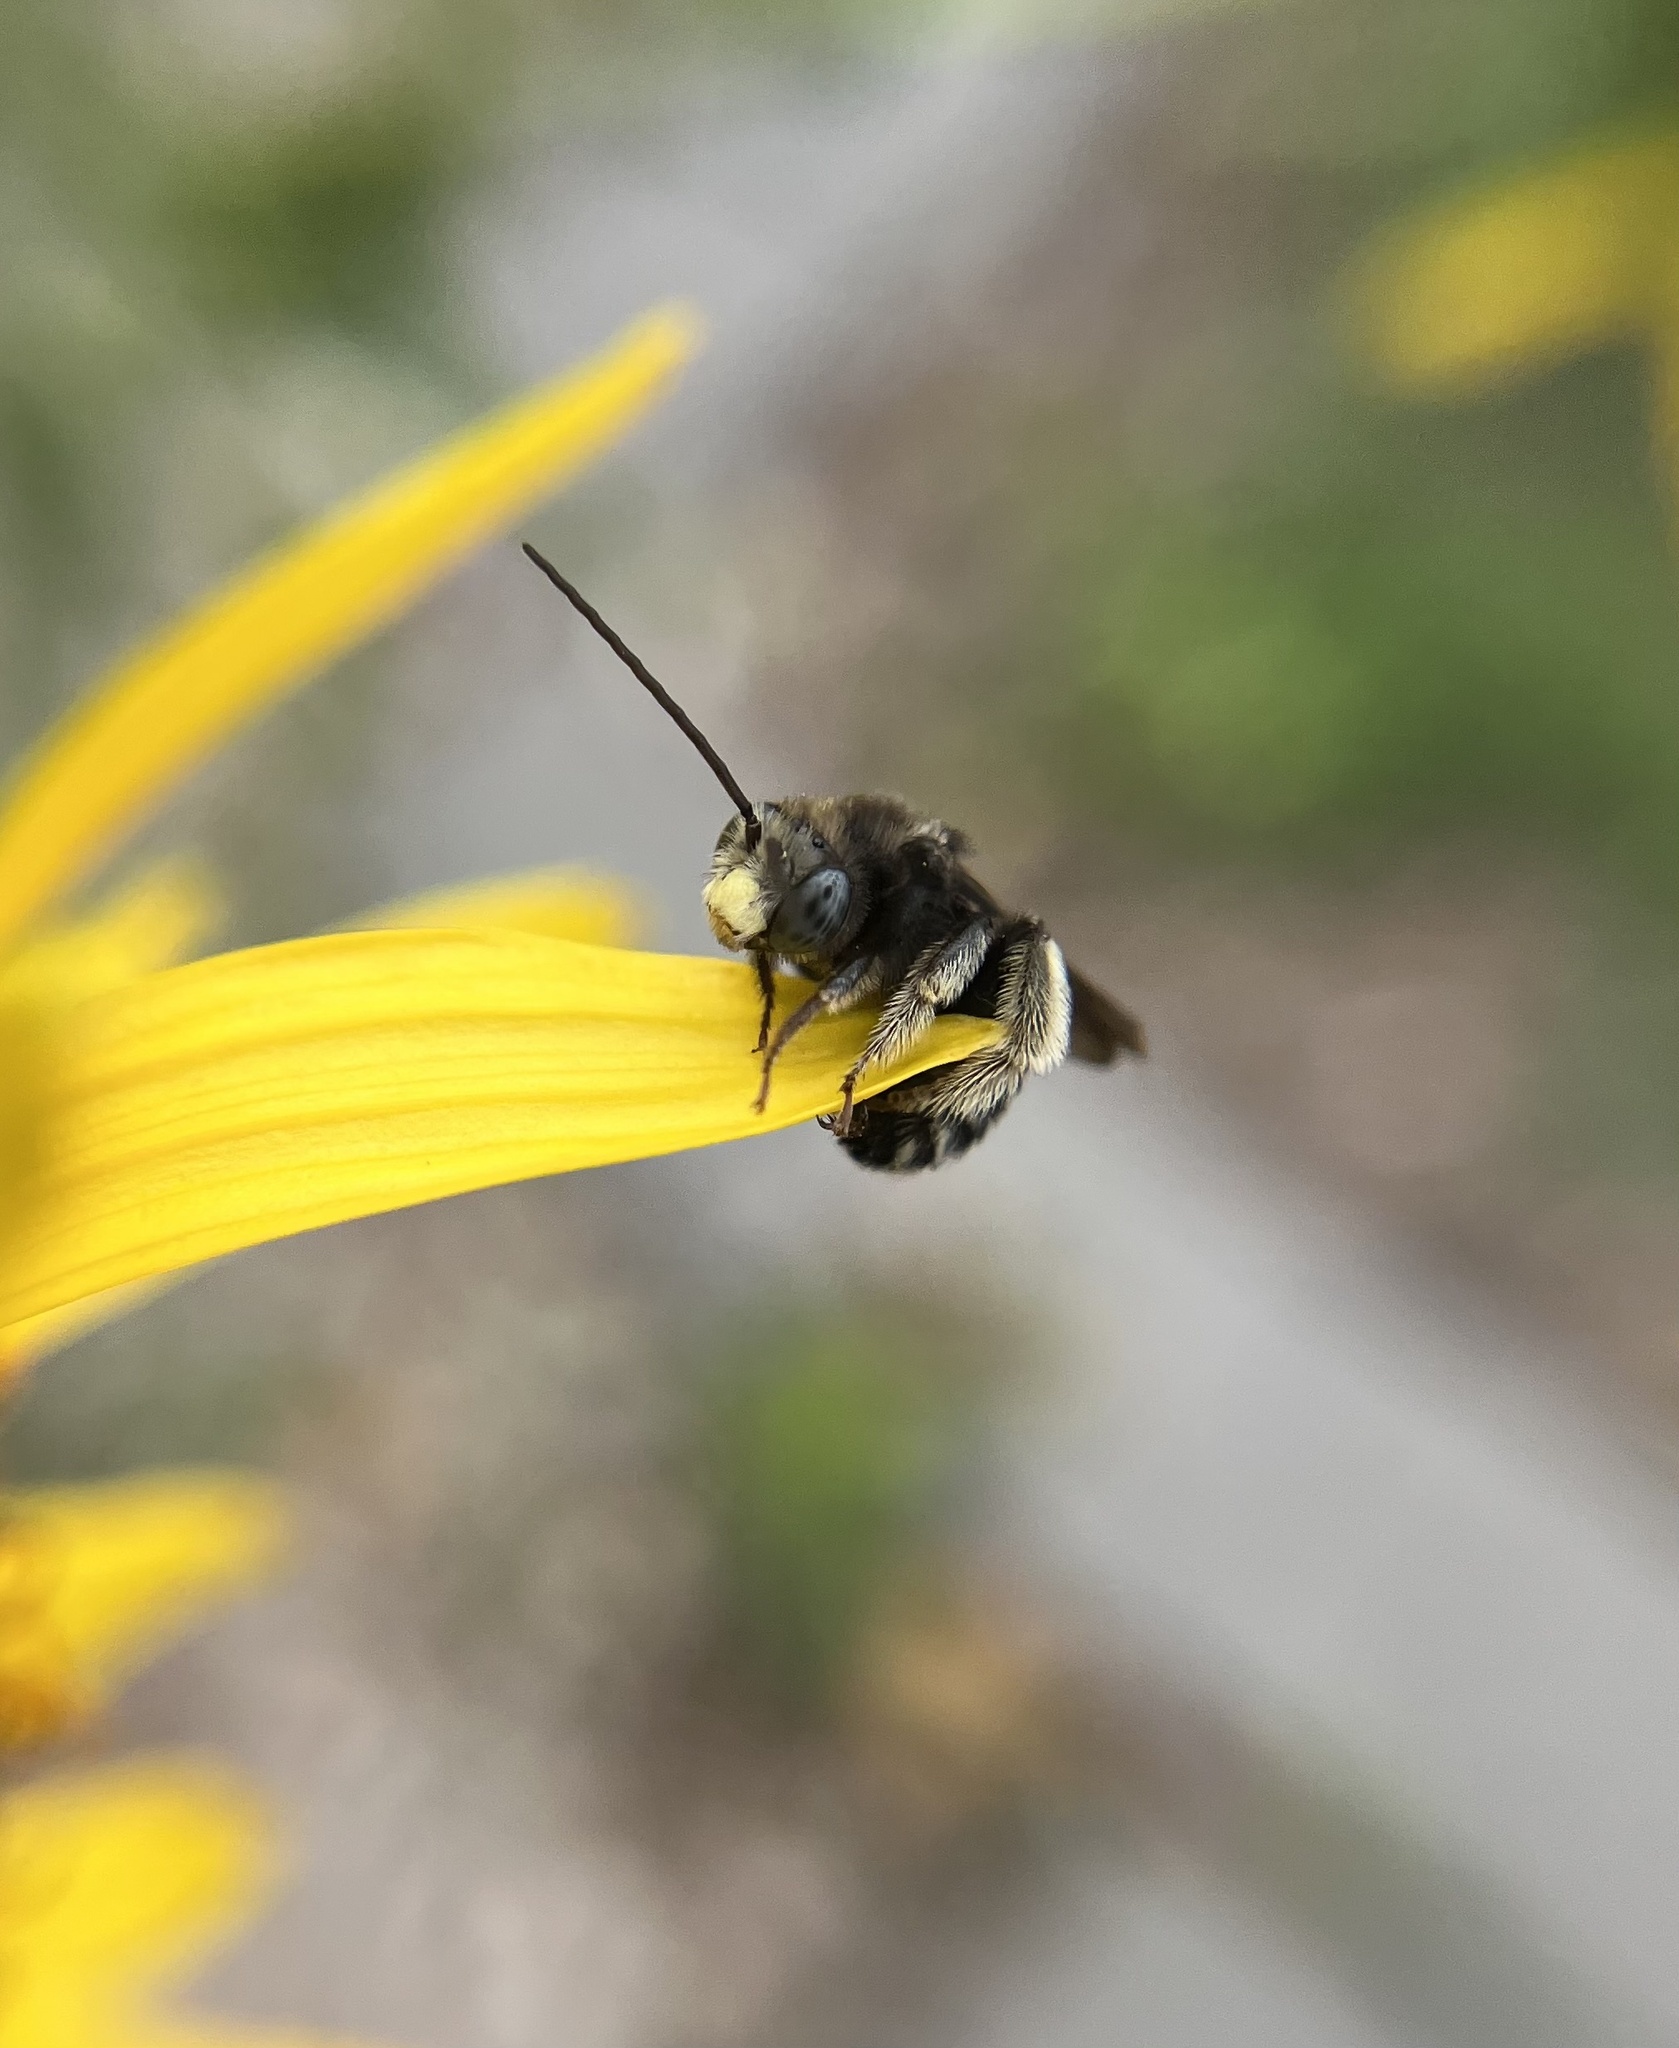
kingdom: Animalia
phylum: Arthropoda
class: Insecta
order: Hymenoptera
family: Apidae
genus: Melissodes
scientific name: Melissodes bimaculatus
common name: Two-spotted long-horned bee
